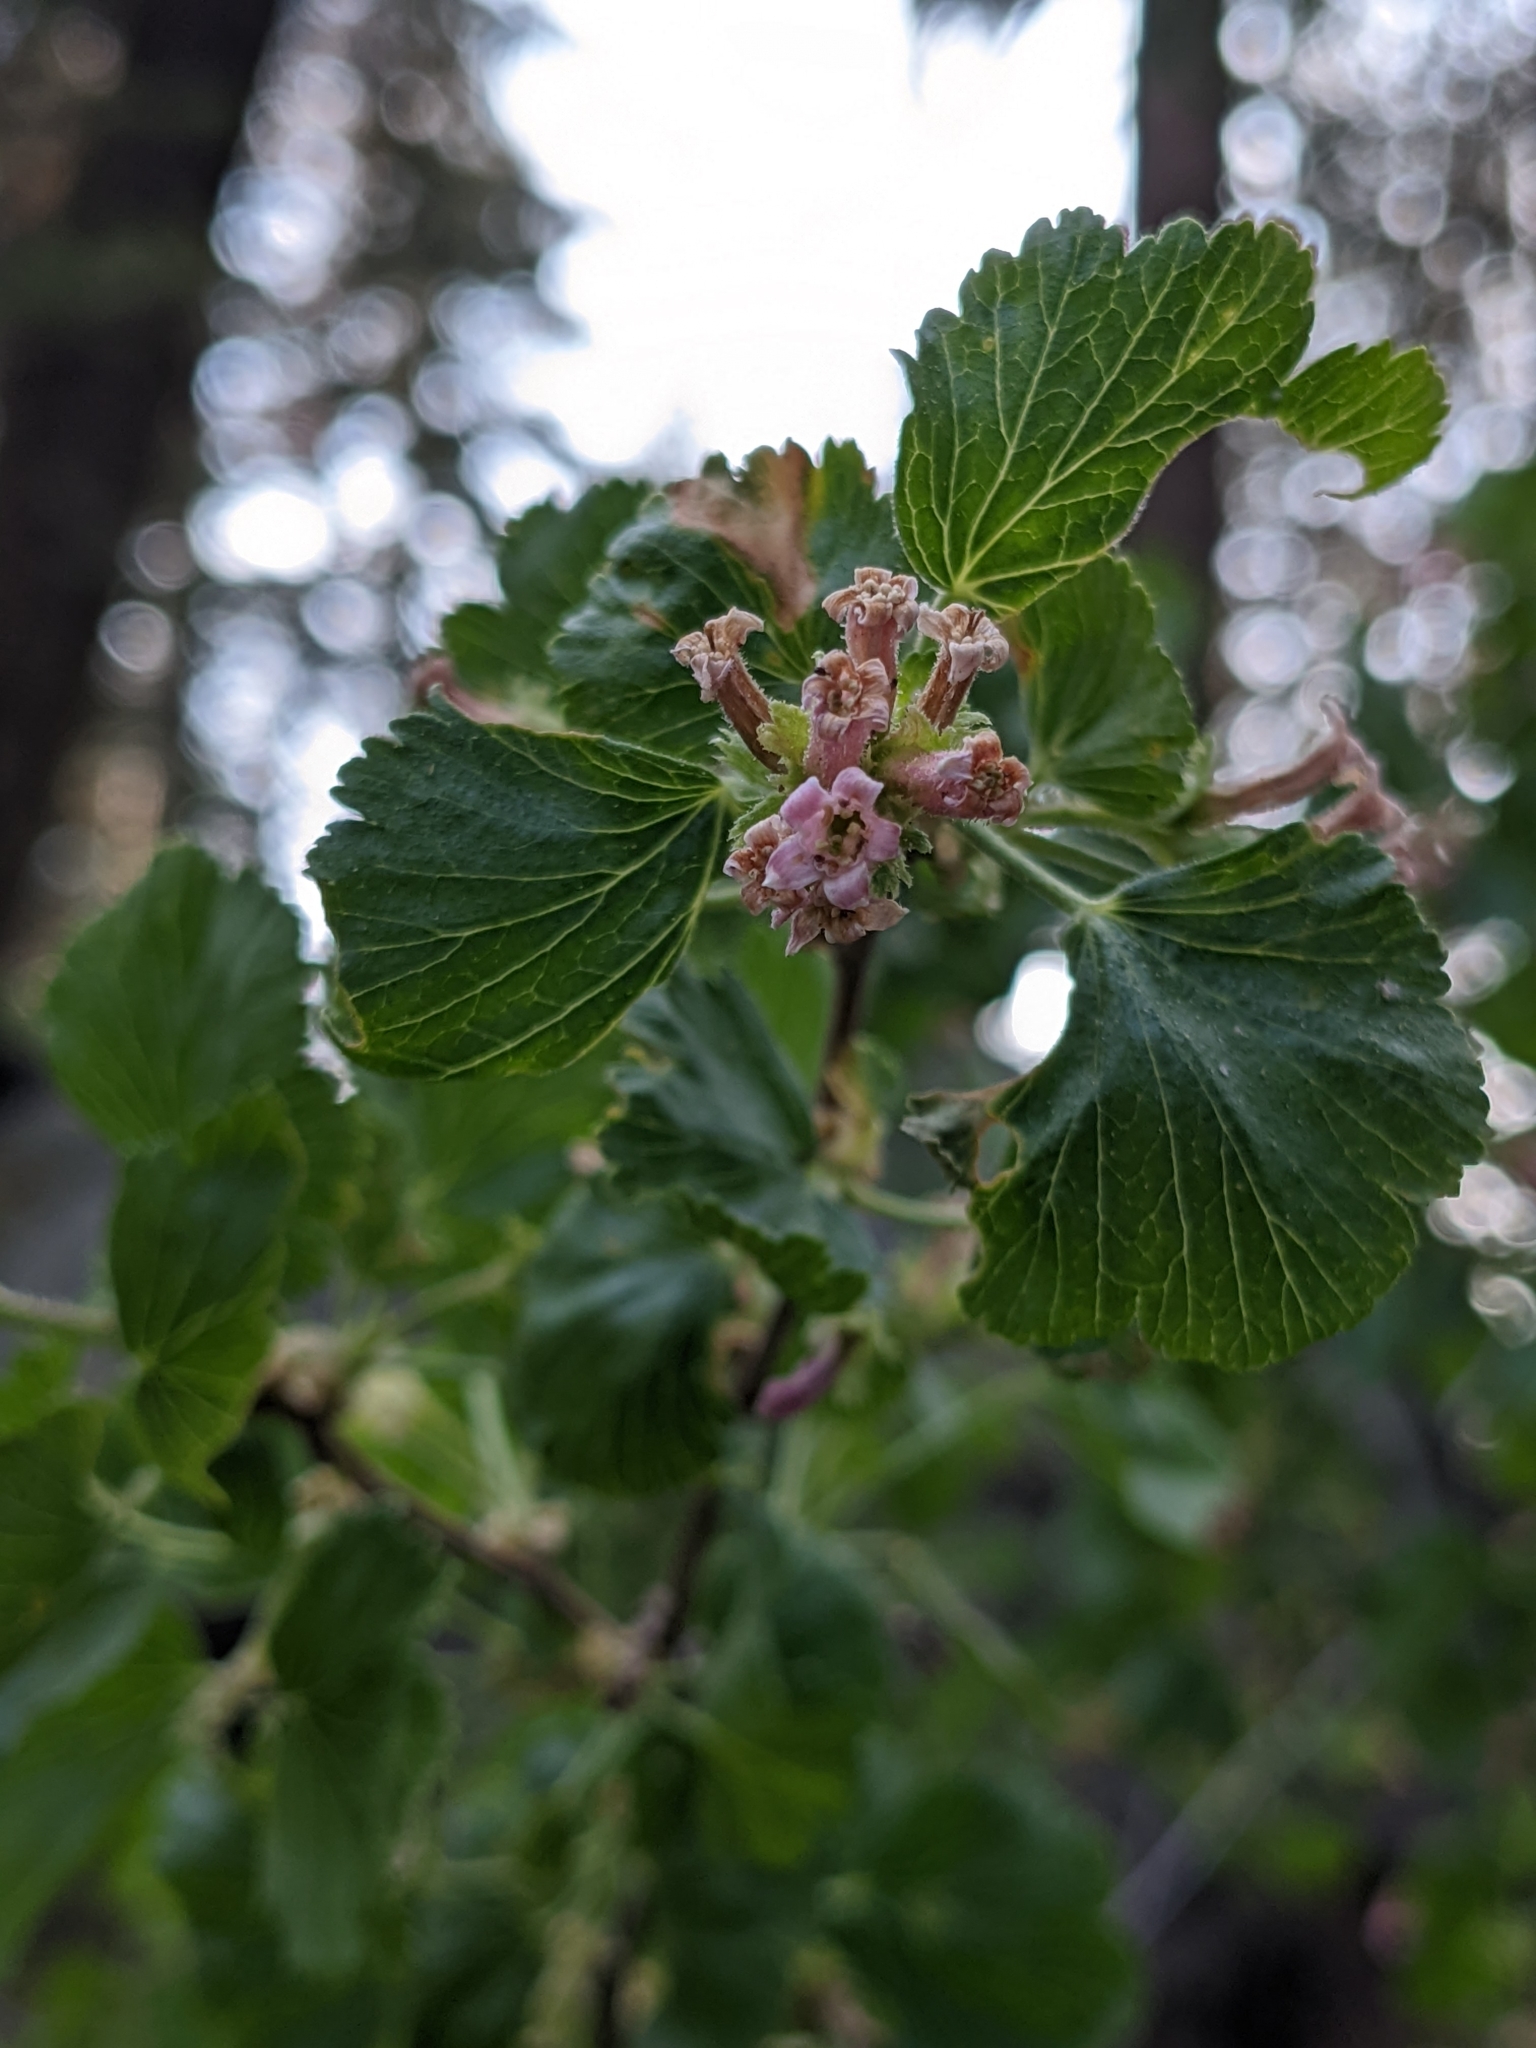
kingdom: Plantae
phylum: Tracheophyta
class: Magnoliopsida
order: Saxifragales
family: Grossulariaceae
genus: Ribes
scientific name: Ribes cereum
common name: Wax currant
